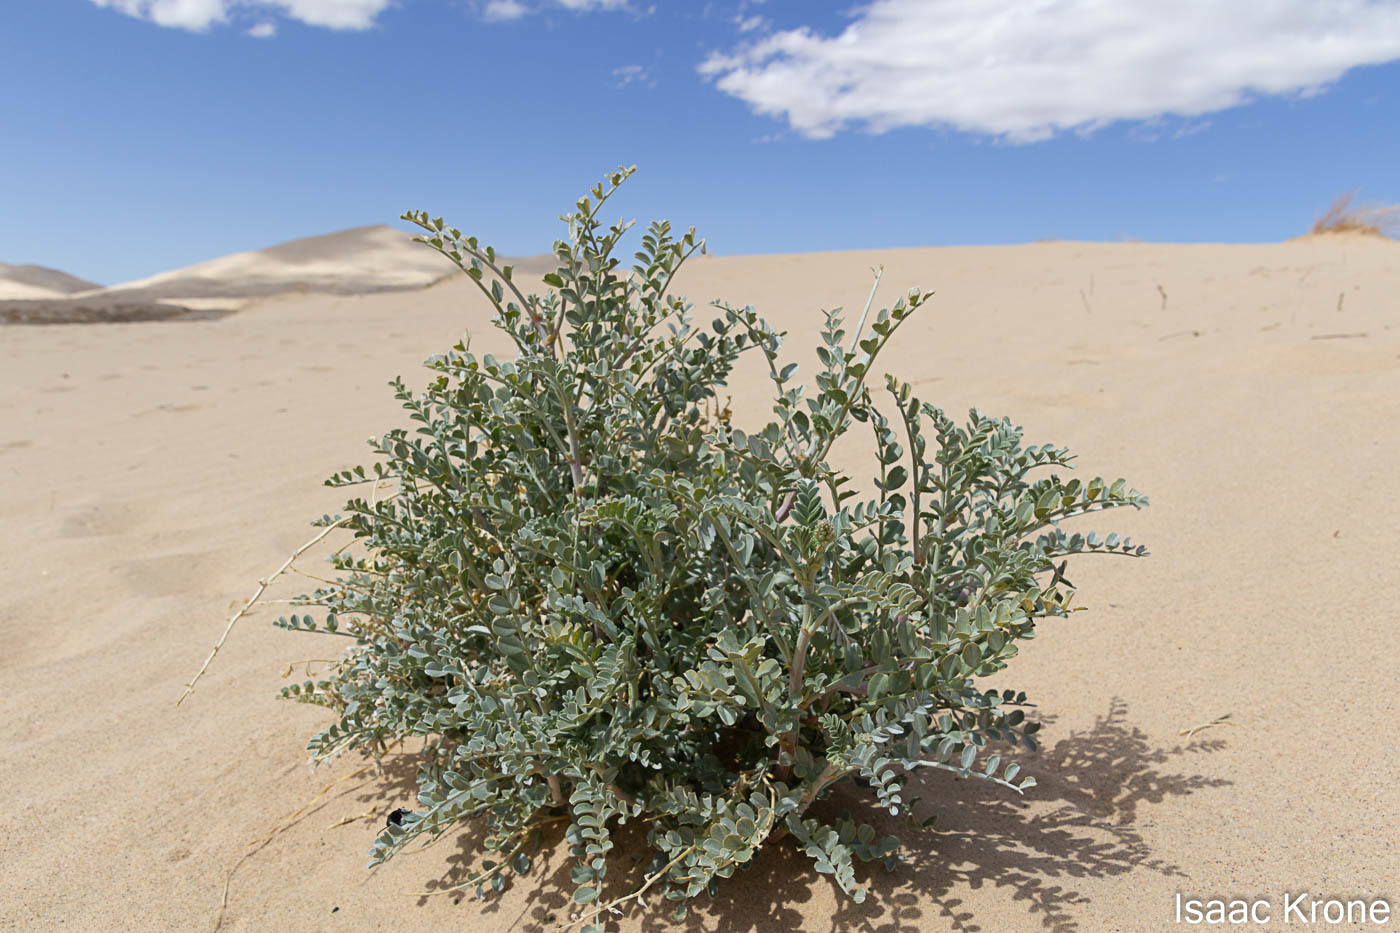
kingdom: Plantae
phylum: Tracheophyta
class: Magnoliopsida
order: Fabales
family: Fabaceae
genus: Astragalus
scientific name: Astragalus lentiginosus
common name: Freckled milkvetch
